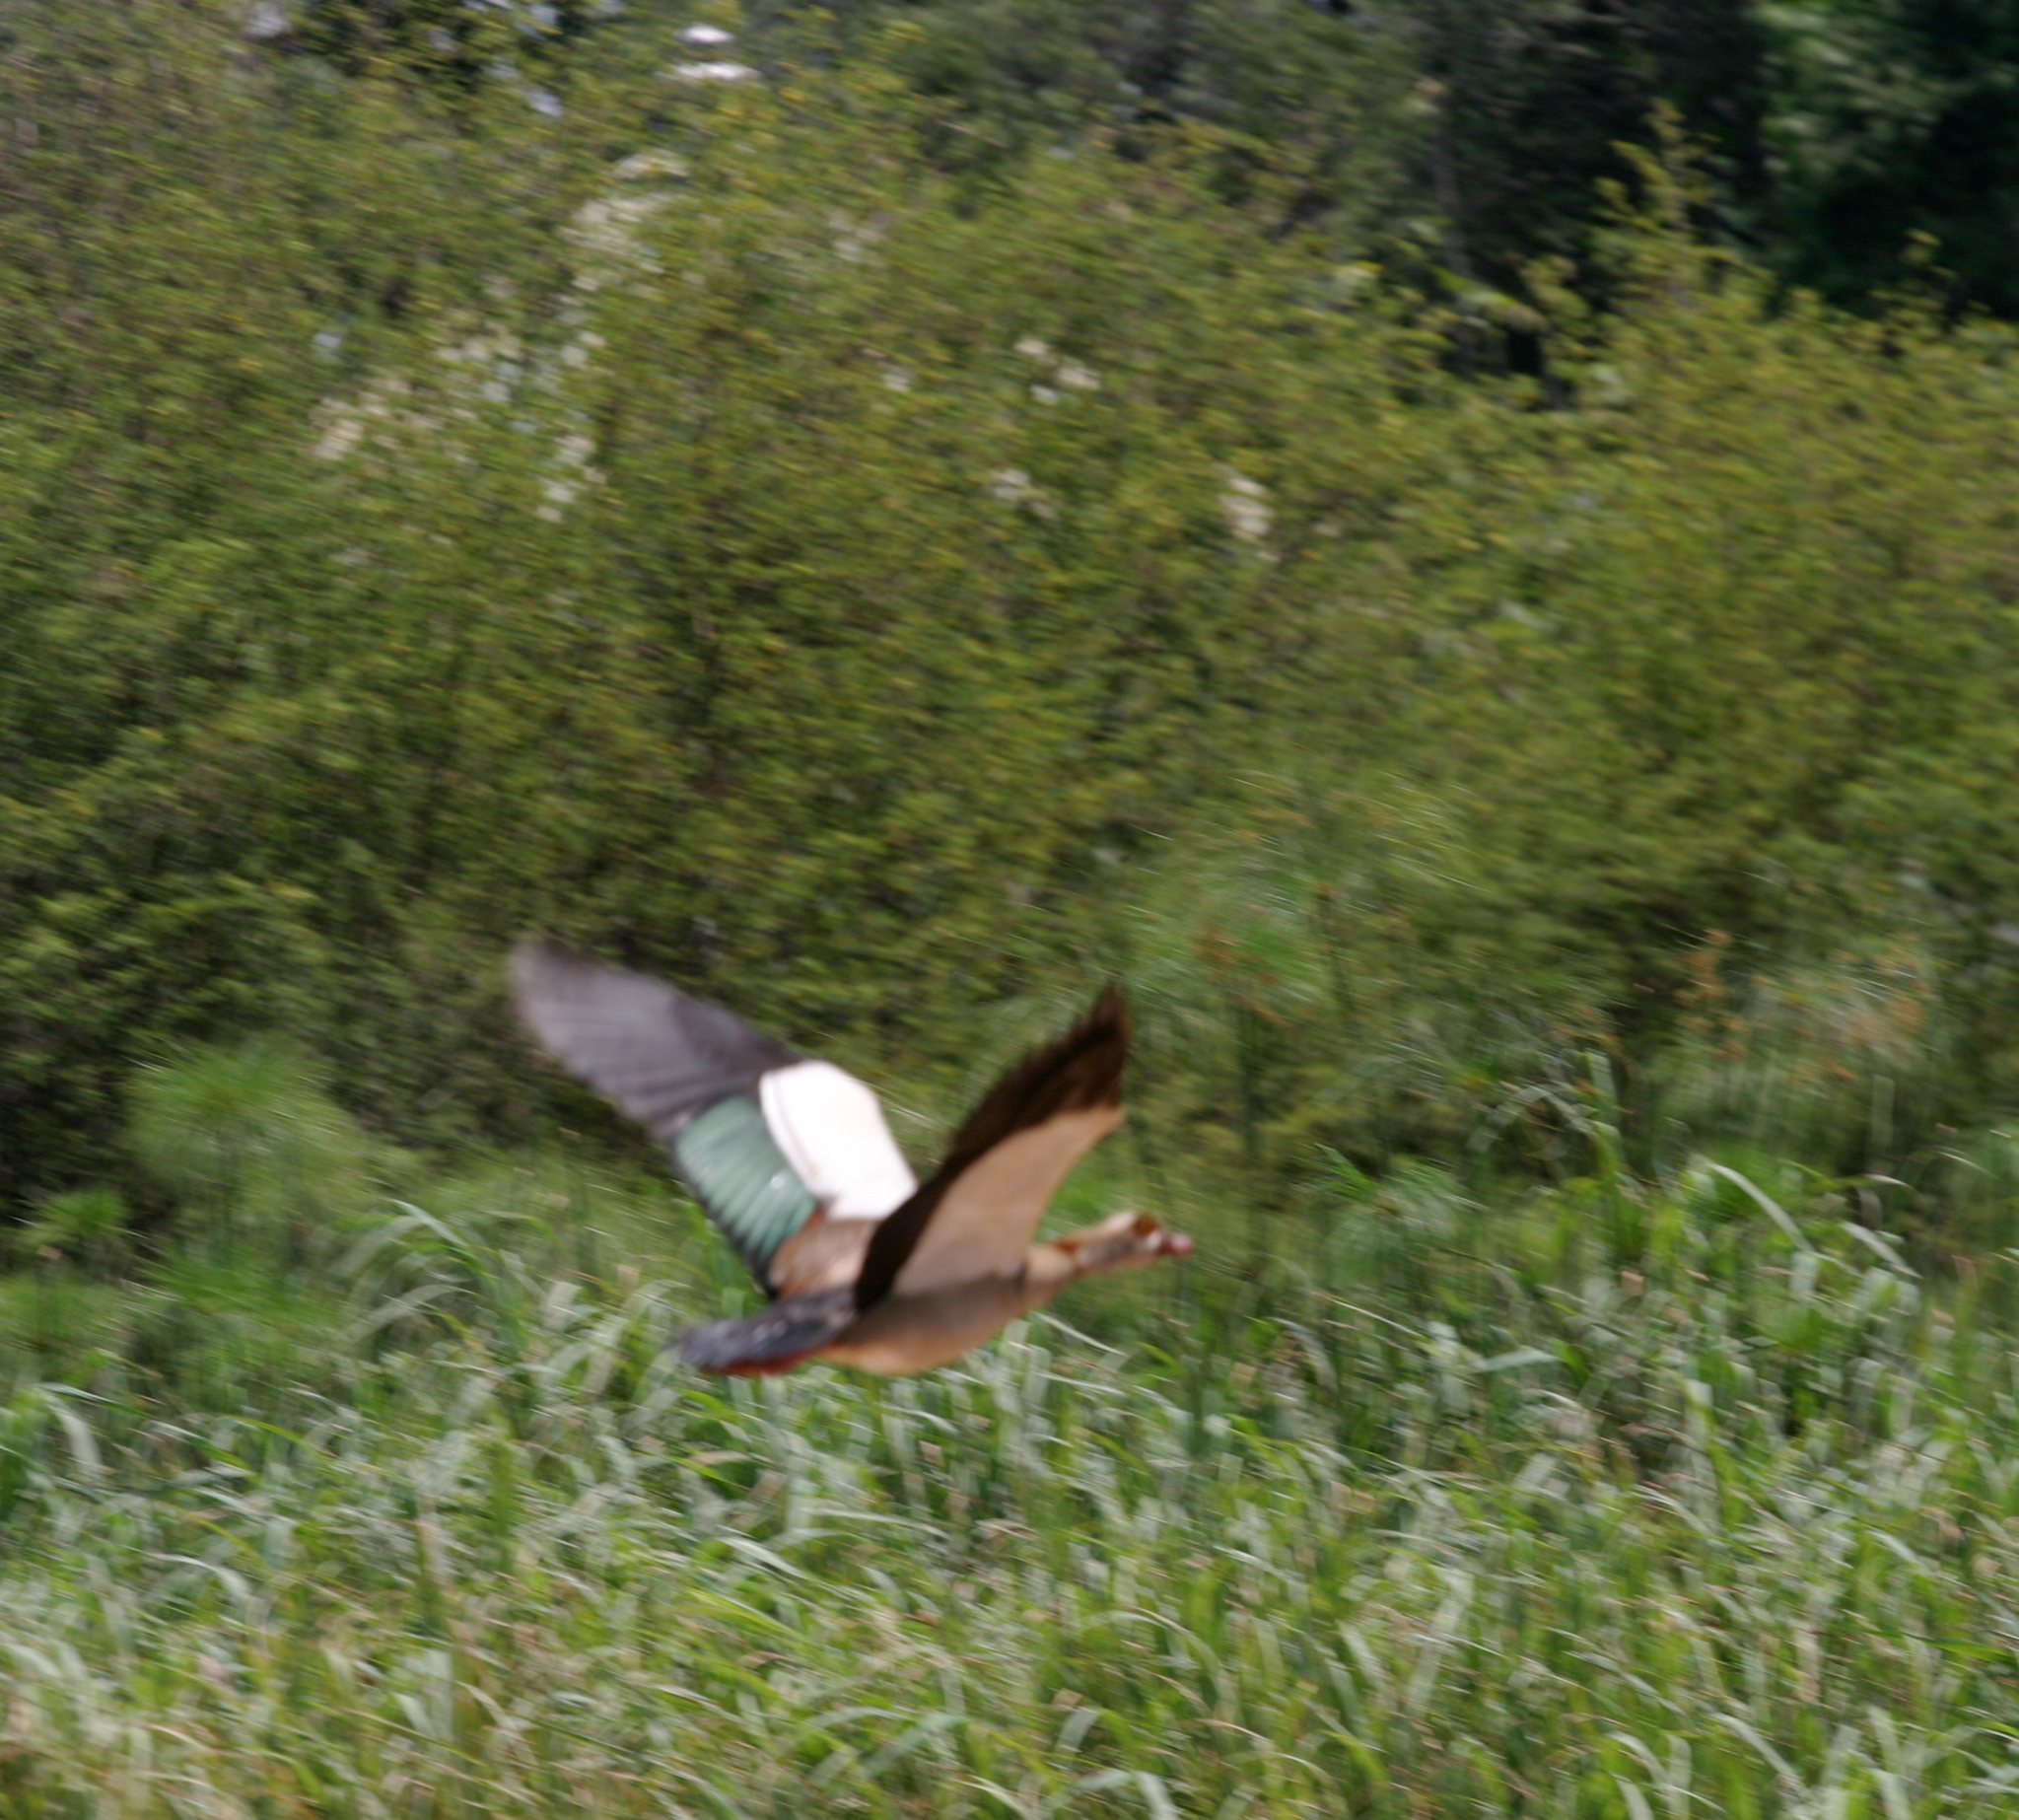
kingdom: Animalia
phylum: Chordata
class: Aves
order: Anseriformes
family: Anatidae
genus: Alopochen
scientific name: Alopochen aegyptiaca
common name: Egyptian goose
